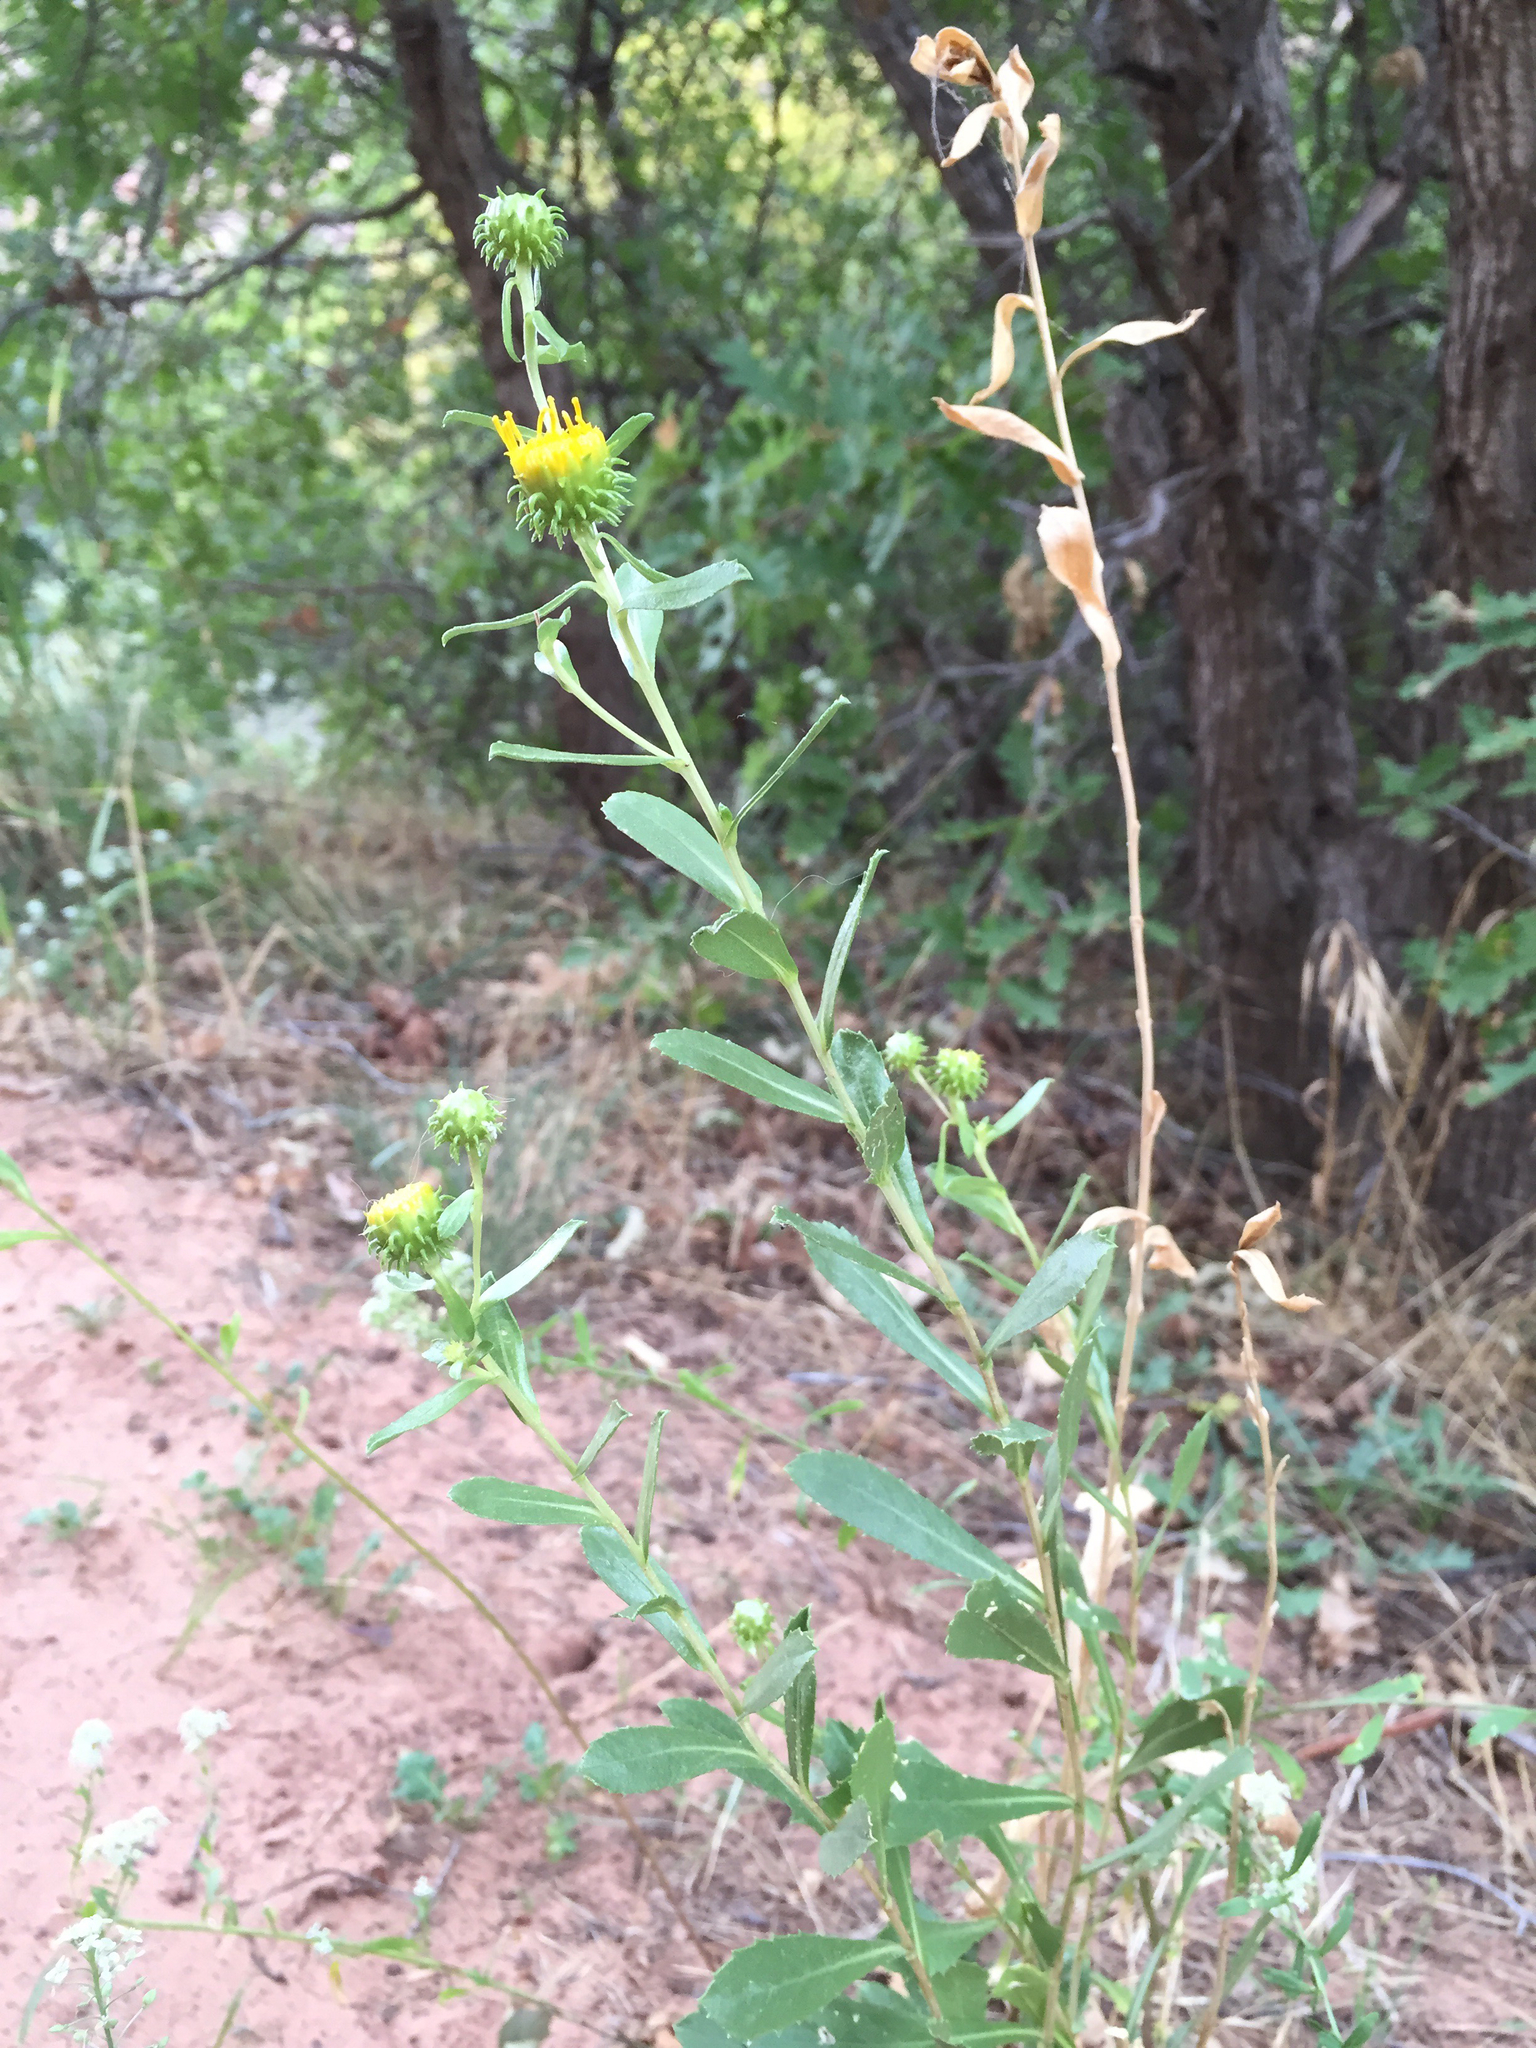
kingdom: Plantae
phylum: Tracheophyta
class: Magnoliopsida
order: Asterales
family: Asteraceae
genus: Grindelia
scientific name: Grindelia squarrosa
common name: Curly-cup gumweed
